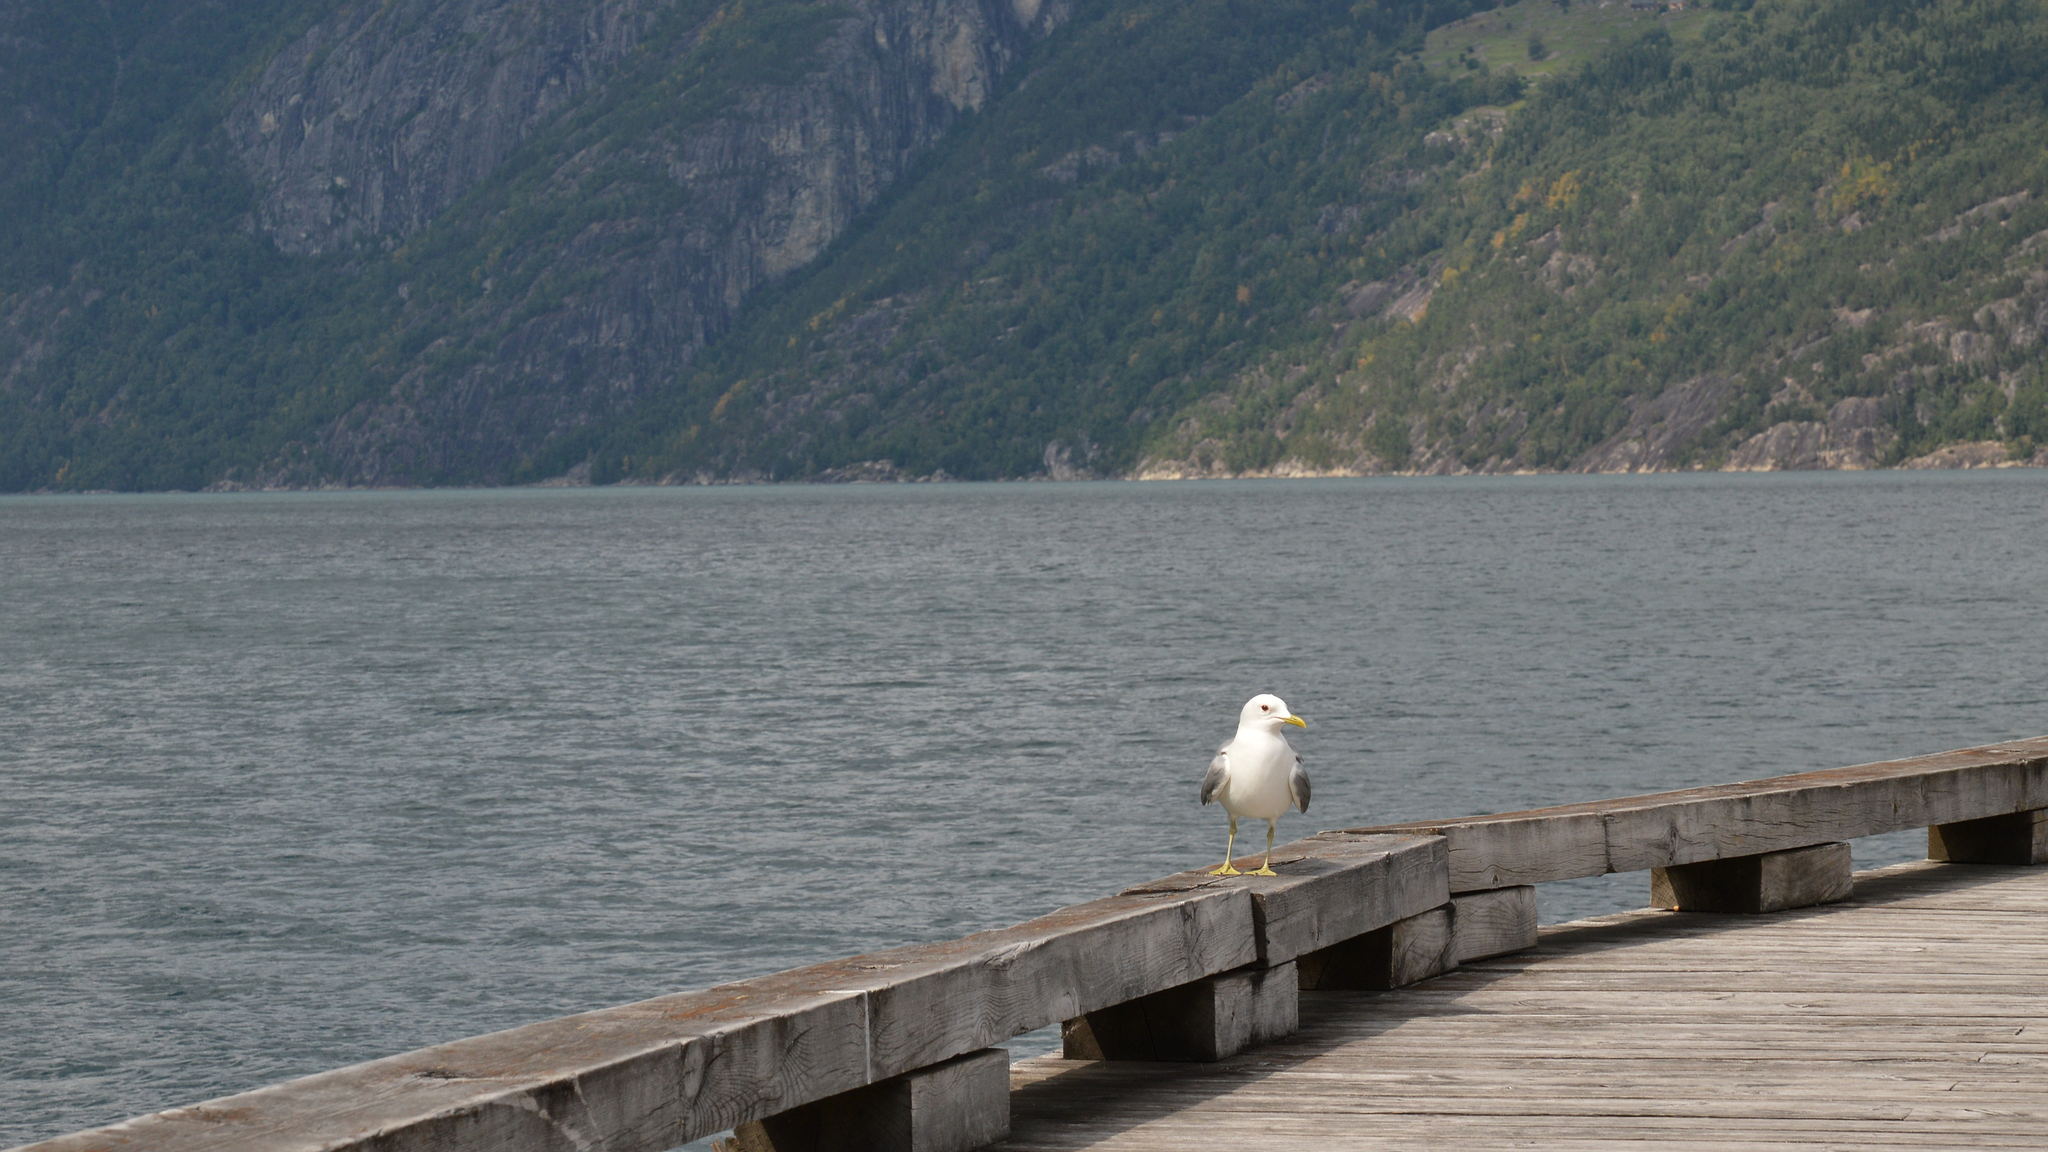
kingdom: Animalia
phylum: Chordata
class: Aves
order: Charadriiformes
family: Laridae
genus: Larus
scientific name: Larus canus
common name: Mew gull
